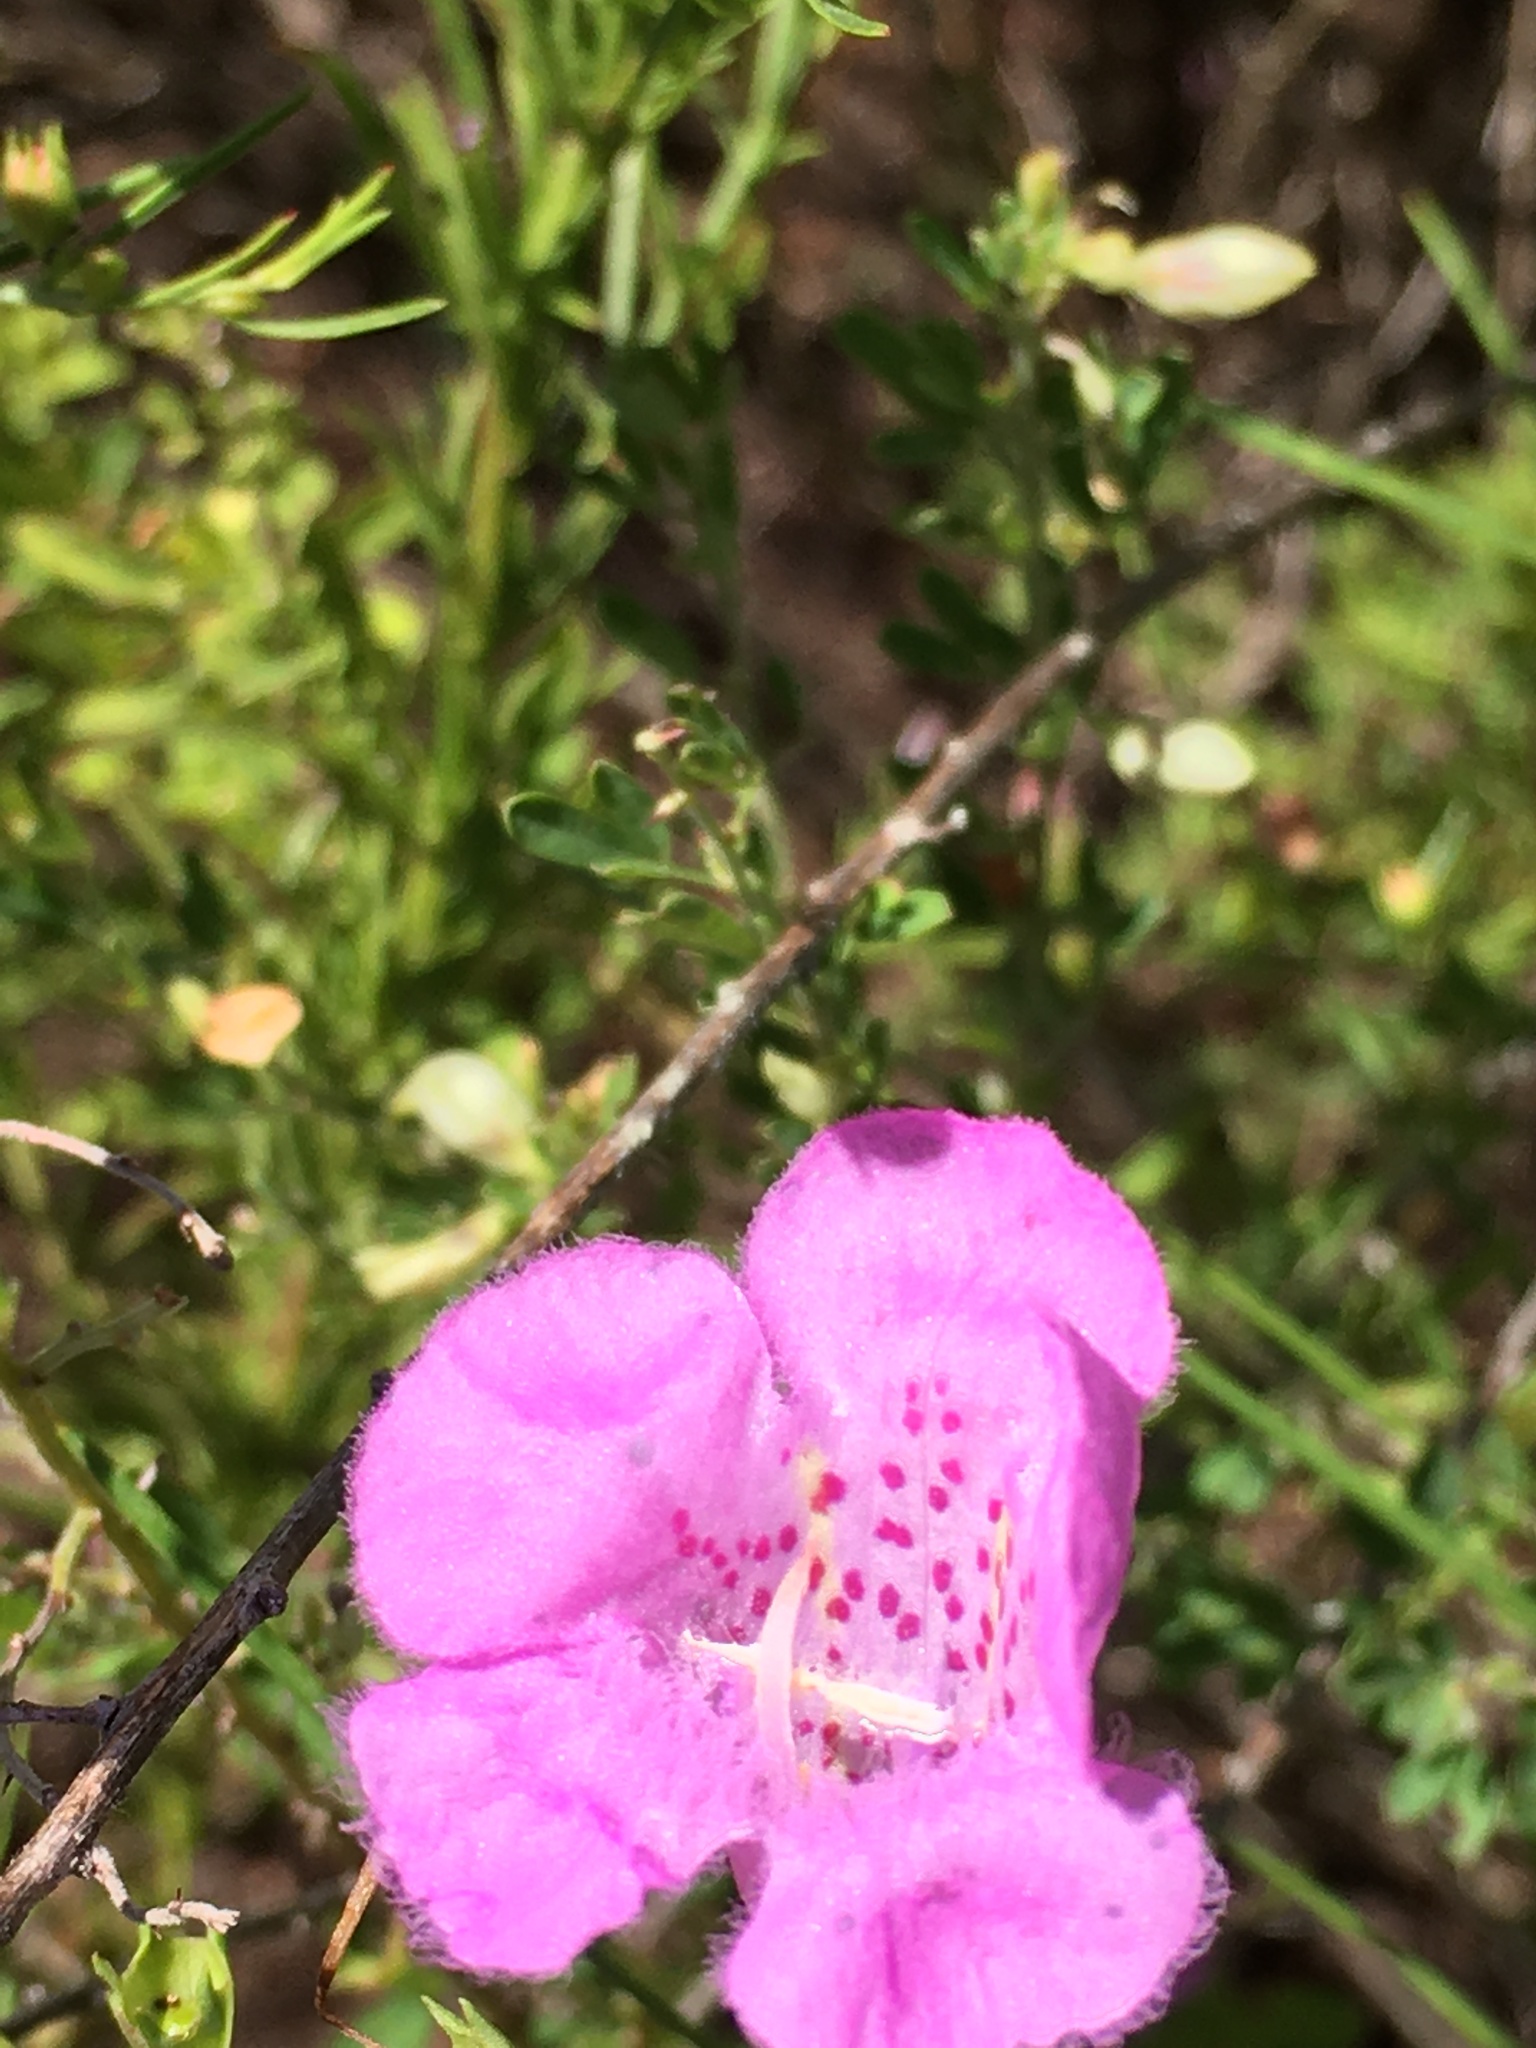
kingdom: Plantae
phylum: Tracheophyta
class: Magnoliopsida
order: Lamiales
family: Orobanchaceae
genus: Agalinis
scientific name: Agalinis fasciculata
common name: Beach false foxglove
